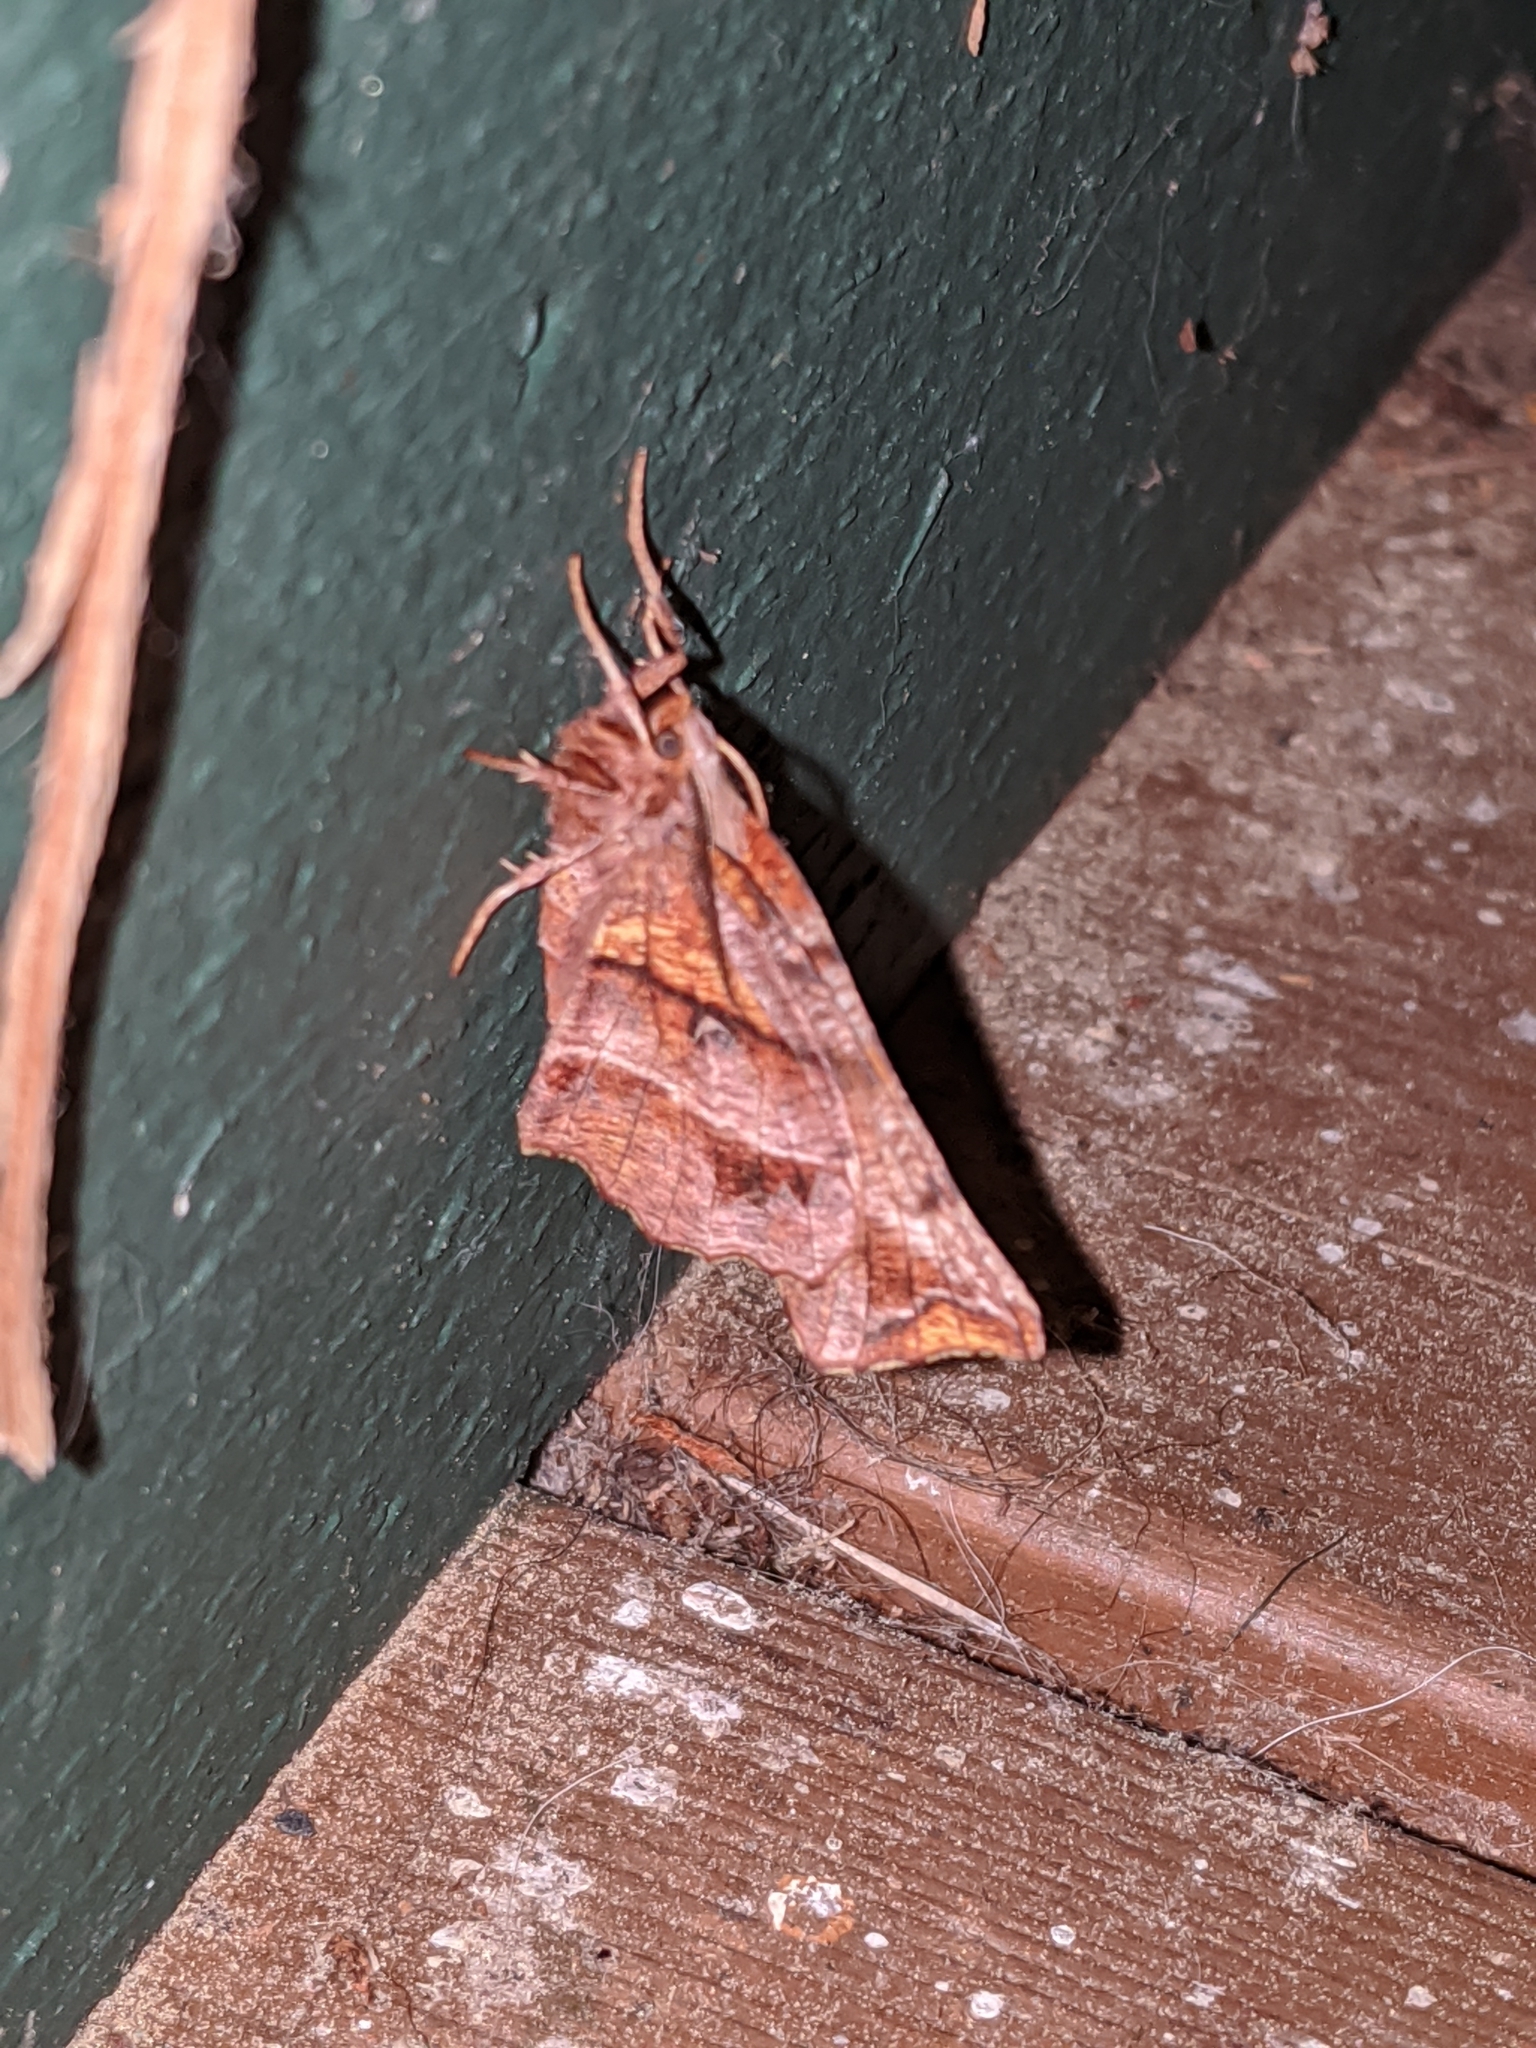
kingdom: Animalia
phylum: Arthropoda
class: Insecta
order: Lepidoptera
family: Geometridae
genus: Selenia
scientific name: Selenia alciphearia
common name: Brown-tipped thorn
